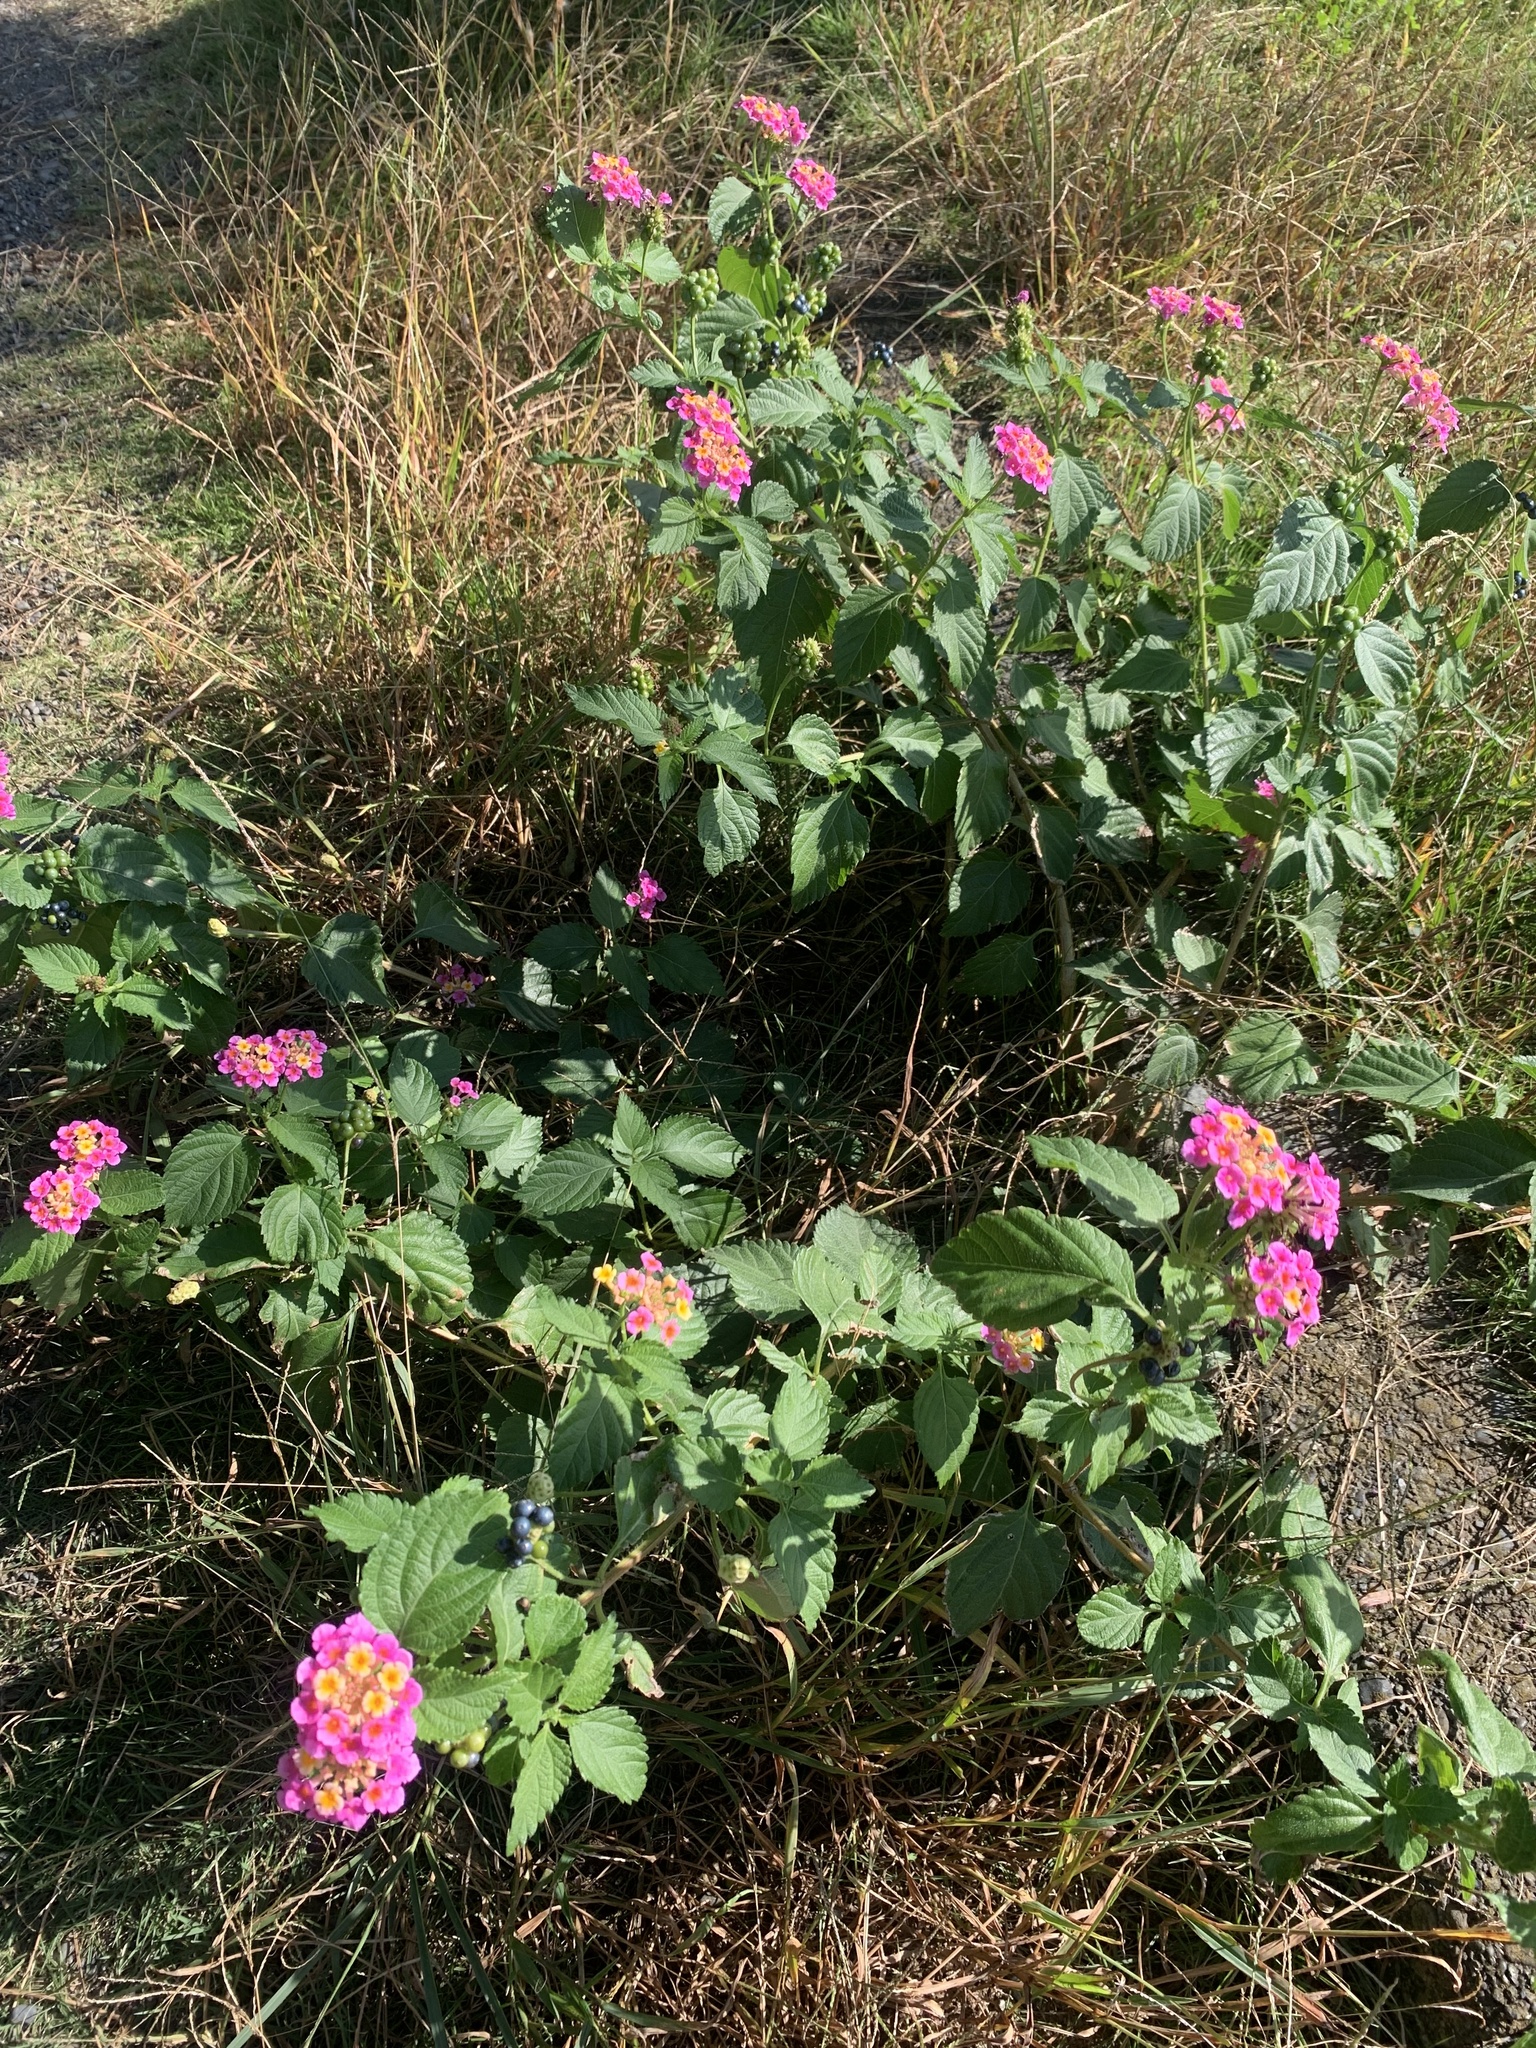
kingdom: Plantae
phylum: Tracheophyta
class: Magnoliopsida
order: Lamiales
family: Verbenaceae
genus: Lantana
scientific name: Lantana camara
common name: Lantana
